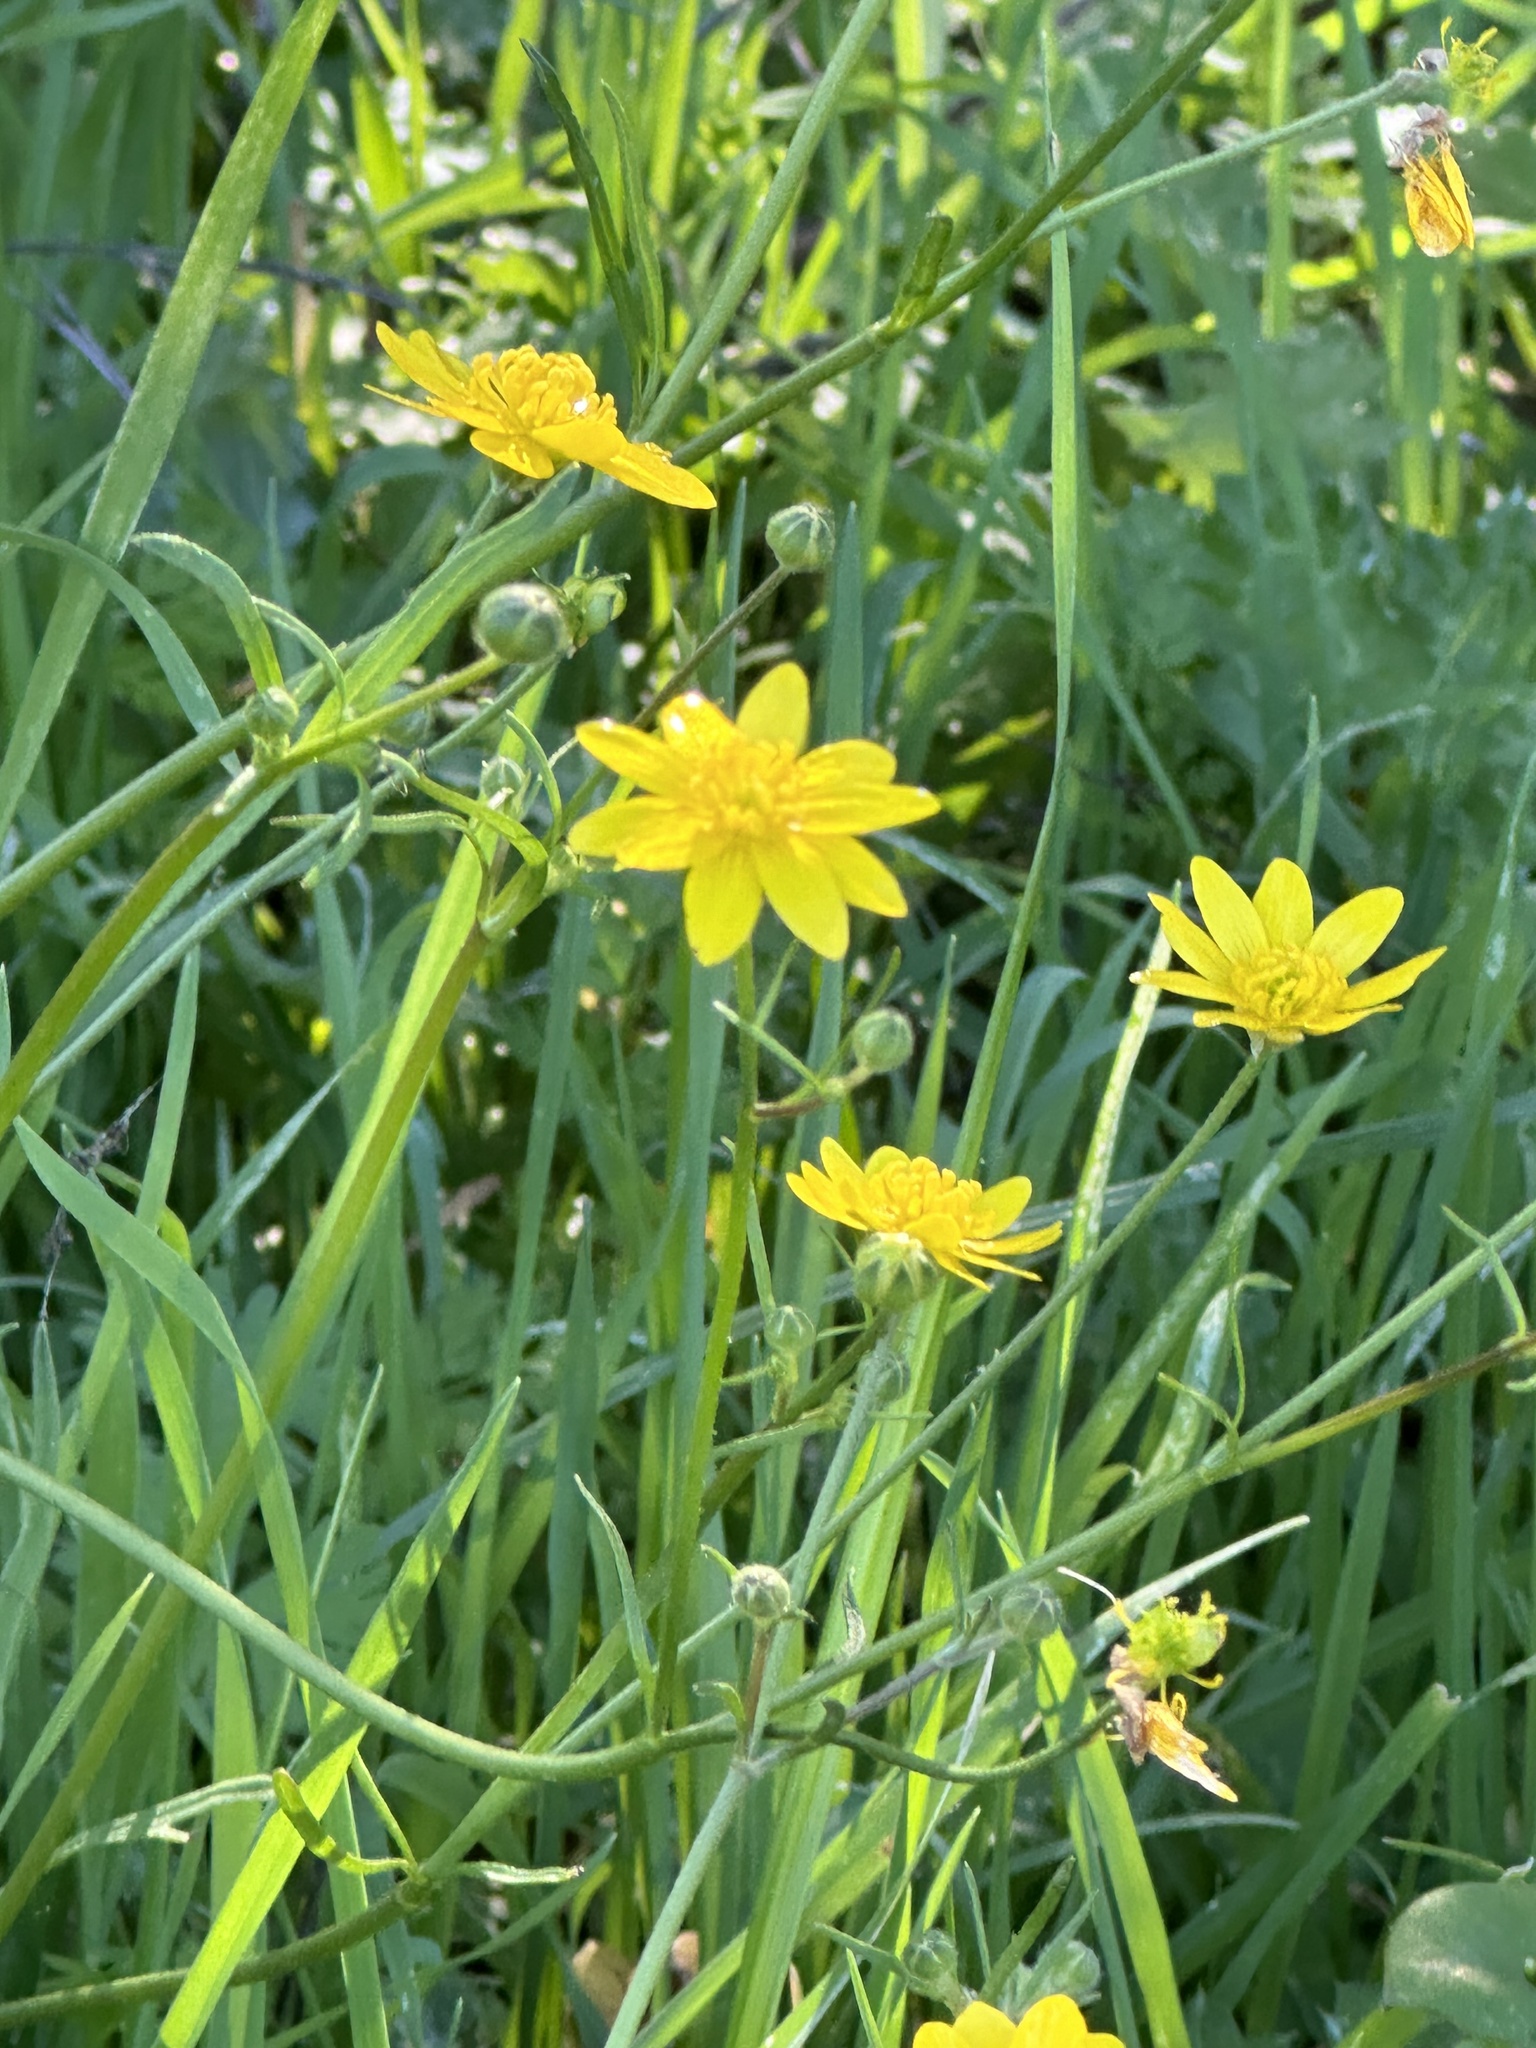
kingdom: Plantae
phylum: Tracheophyta
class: Magnoliopsida
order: Ranunculales
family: Ranunculaceae
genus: Ranunculus
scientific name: Ranunculus californicus
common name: California buttercup
